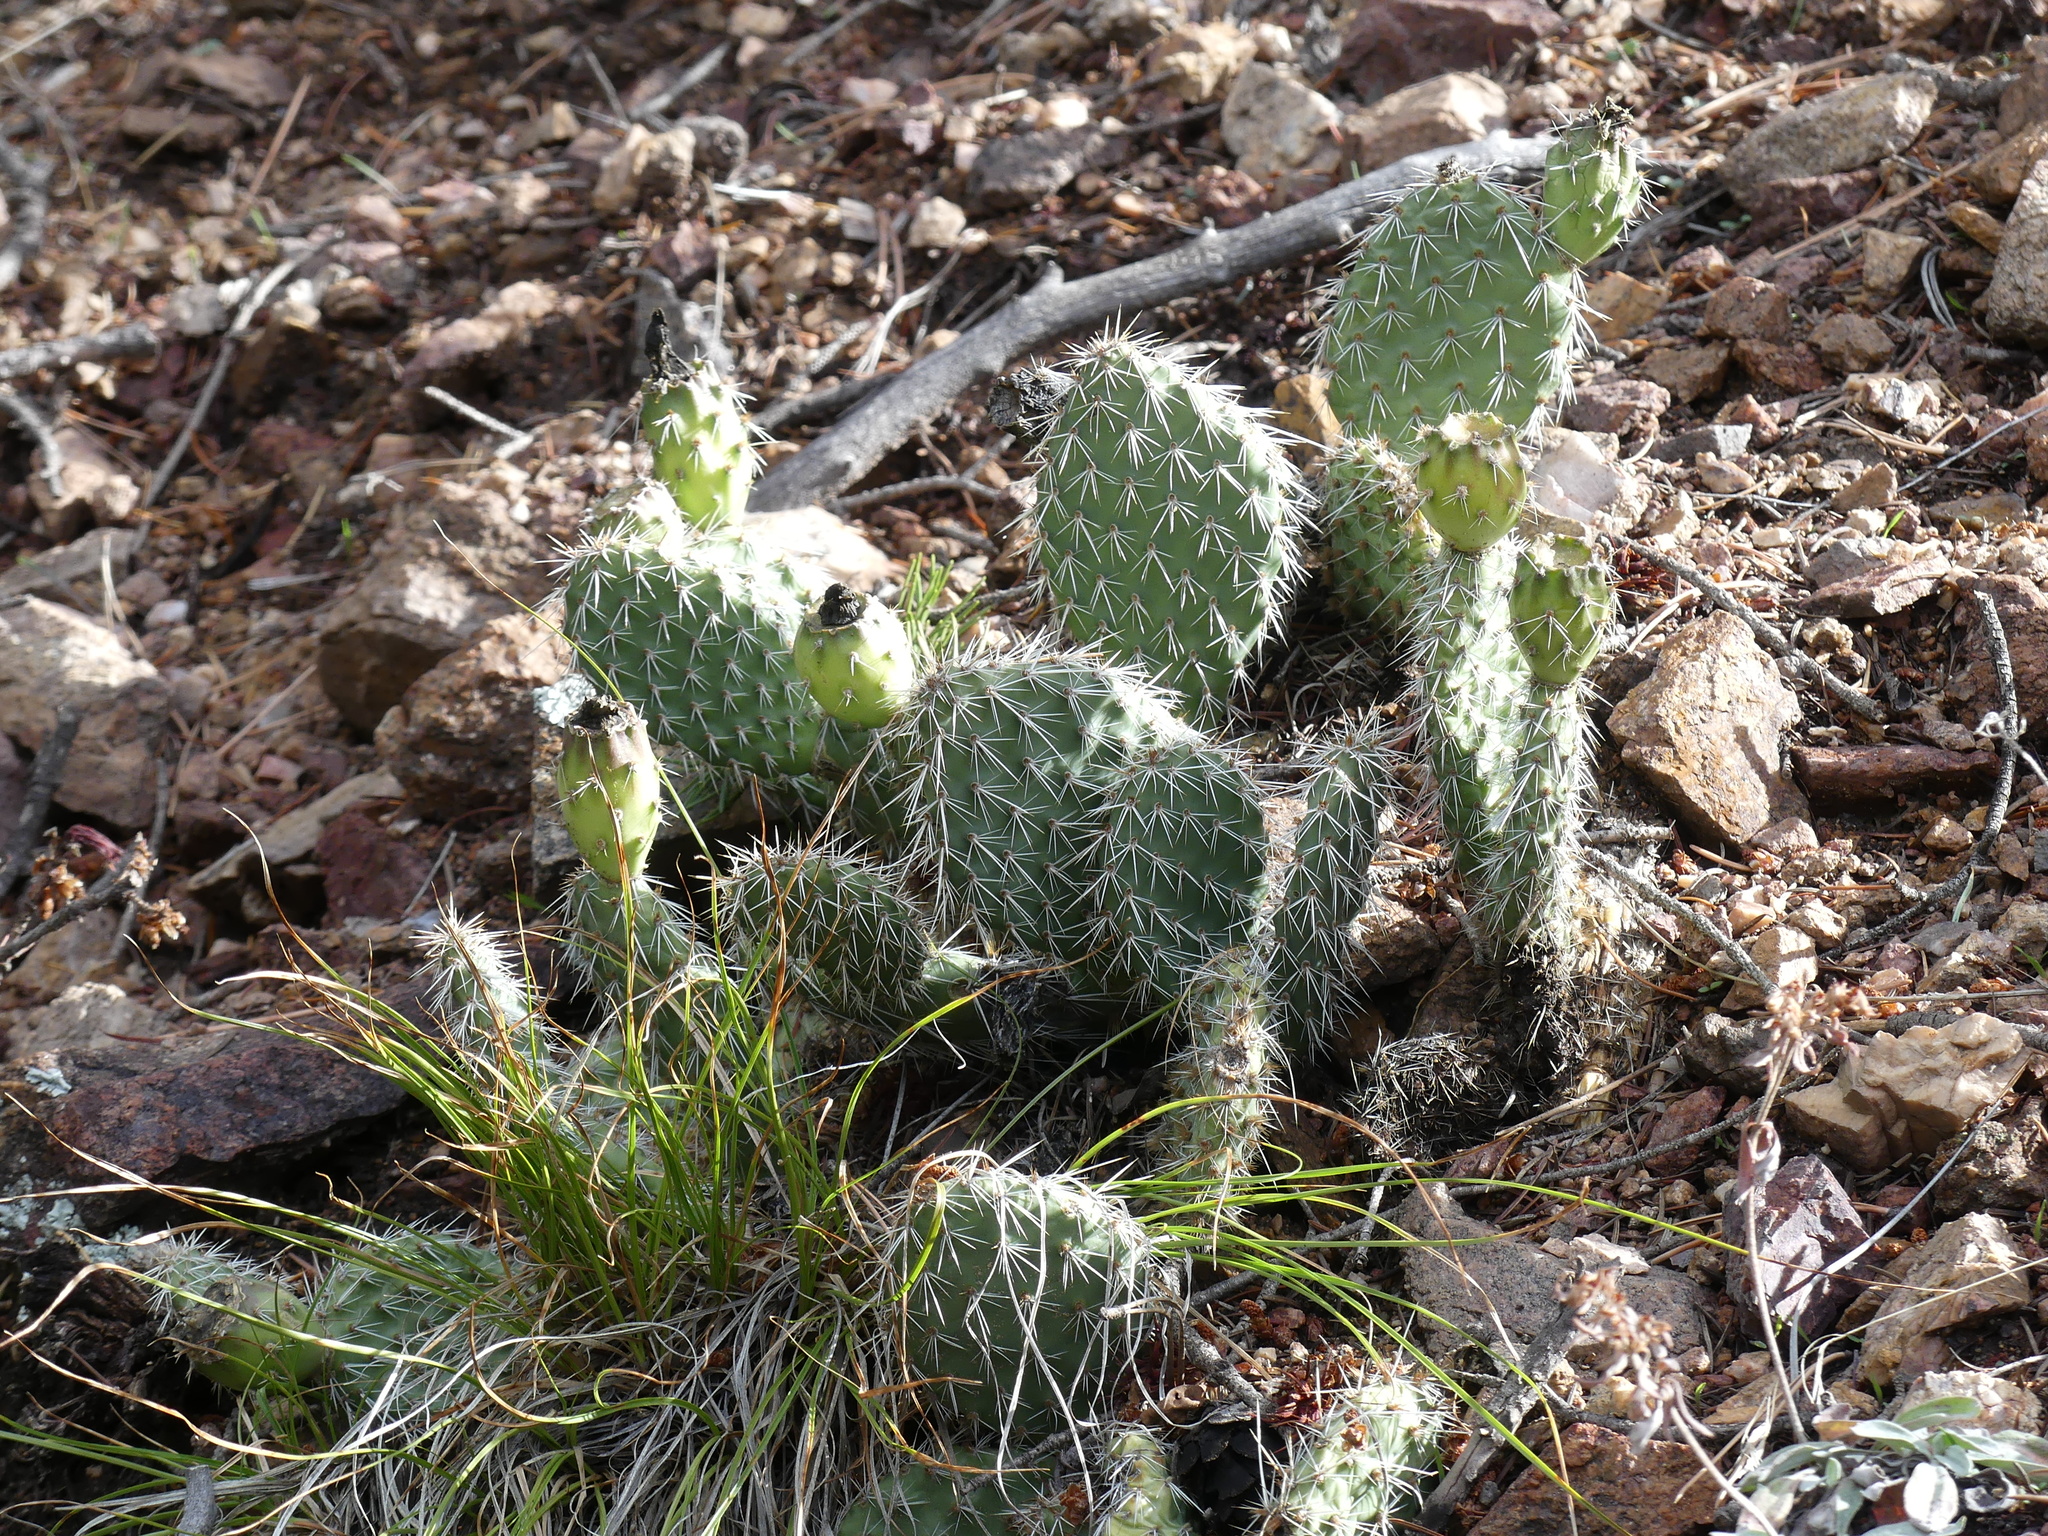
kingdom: Plantae
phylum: Tracheophyta
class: Magnoliopsida
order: Caryophyllales
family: Cactaceae
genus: Opuntia
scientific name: Opuntia polyacantha
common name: Plains prickly-pear
